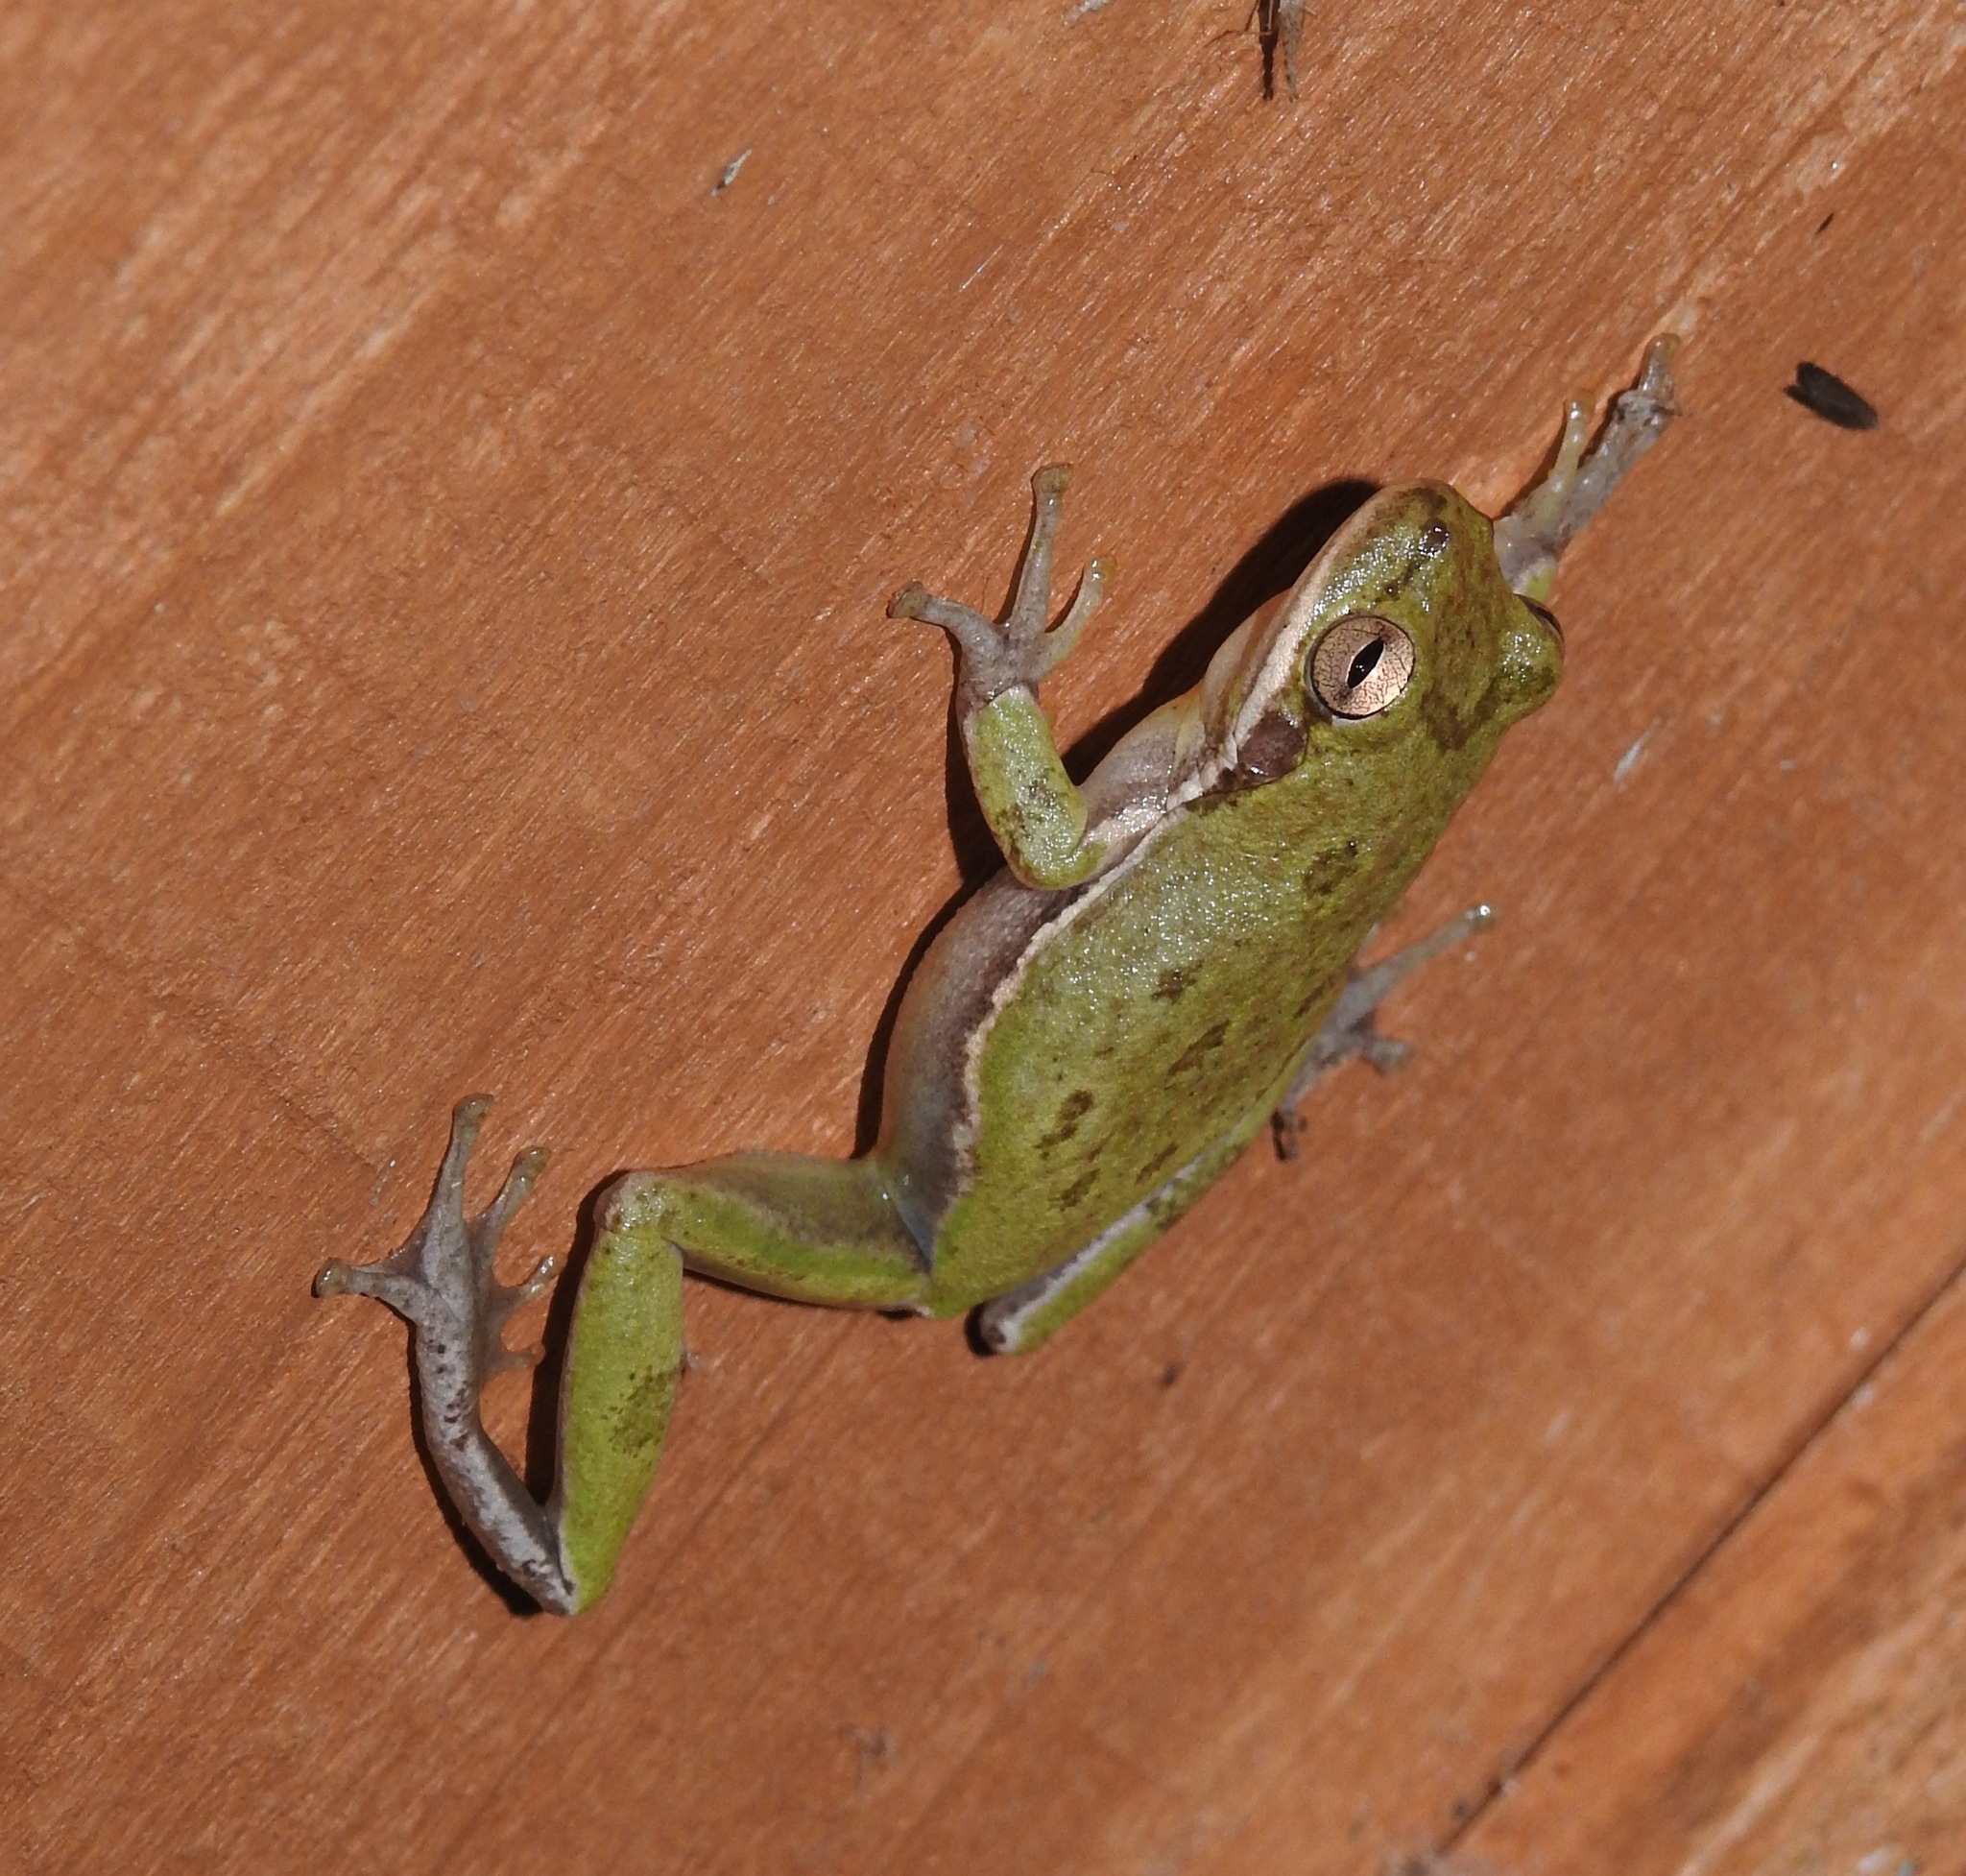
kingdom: Animalia
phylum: Chordata
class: Amphibia
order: Anura
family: Hylidae
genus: Dryophytes
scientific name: Dryophytes squirellus
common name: Squirrel treefrog
